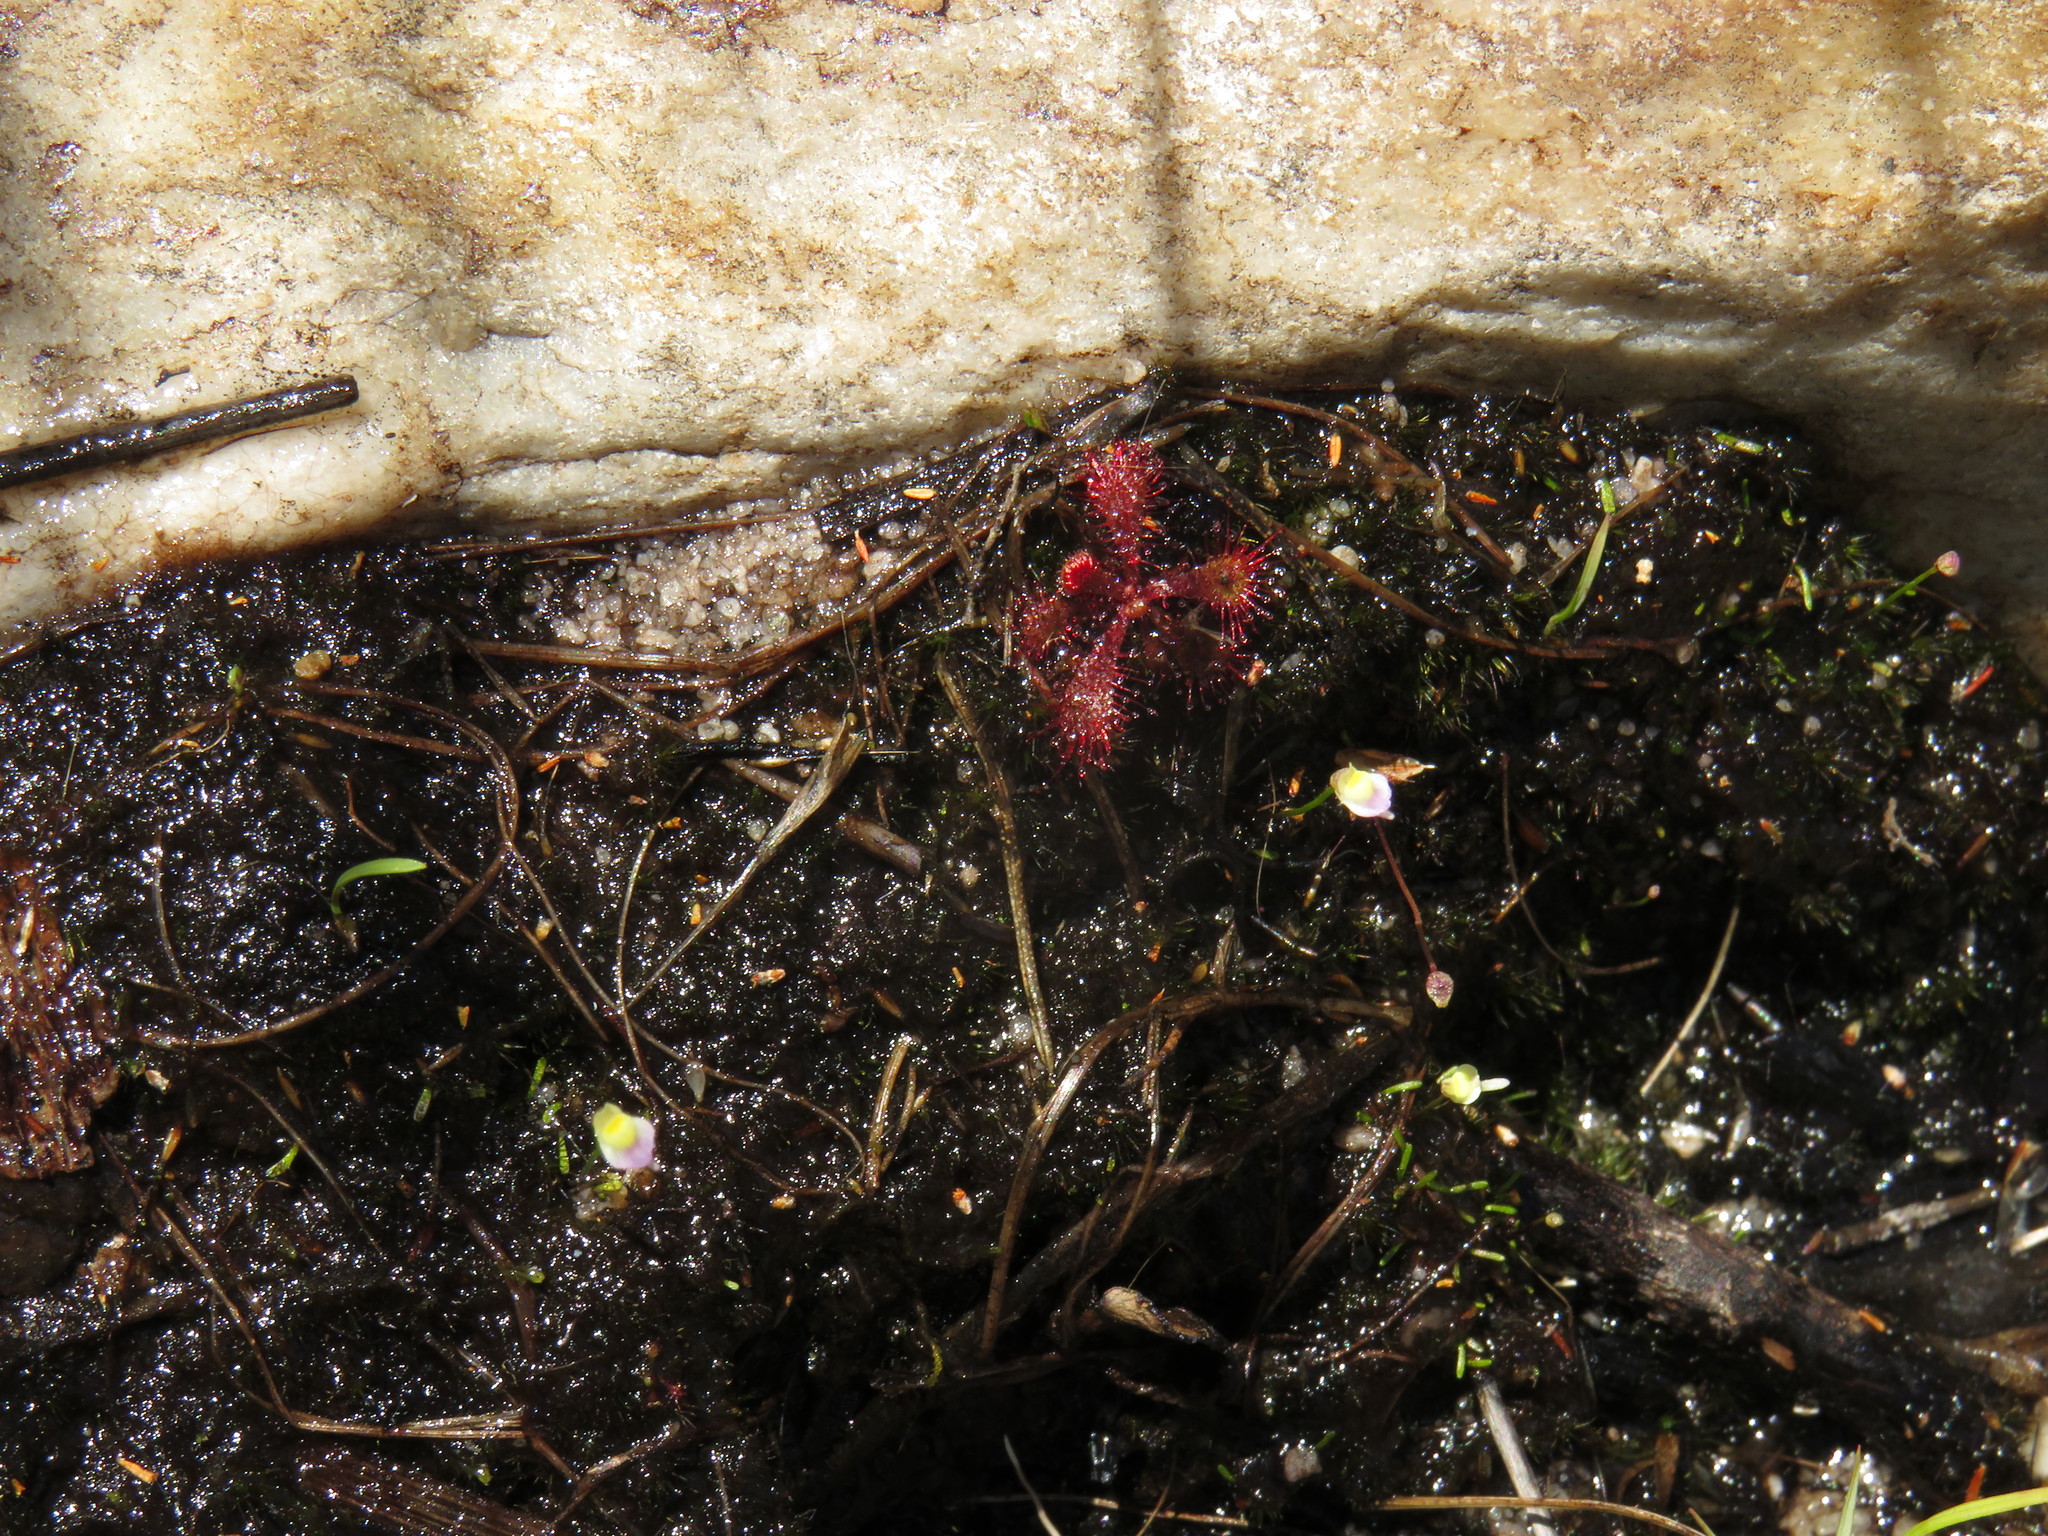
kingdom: Plantae
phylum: Tracheophyta
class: Magnoliopsida
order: Caryophyllales
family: Droseraceae
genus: Drosera
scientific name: Drosera trinervia
